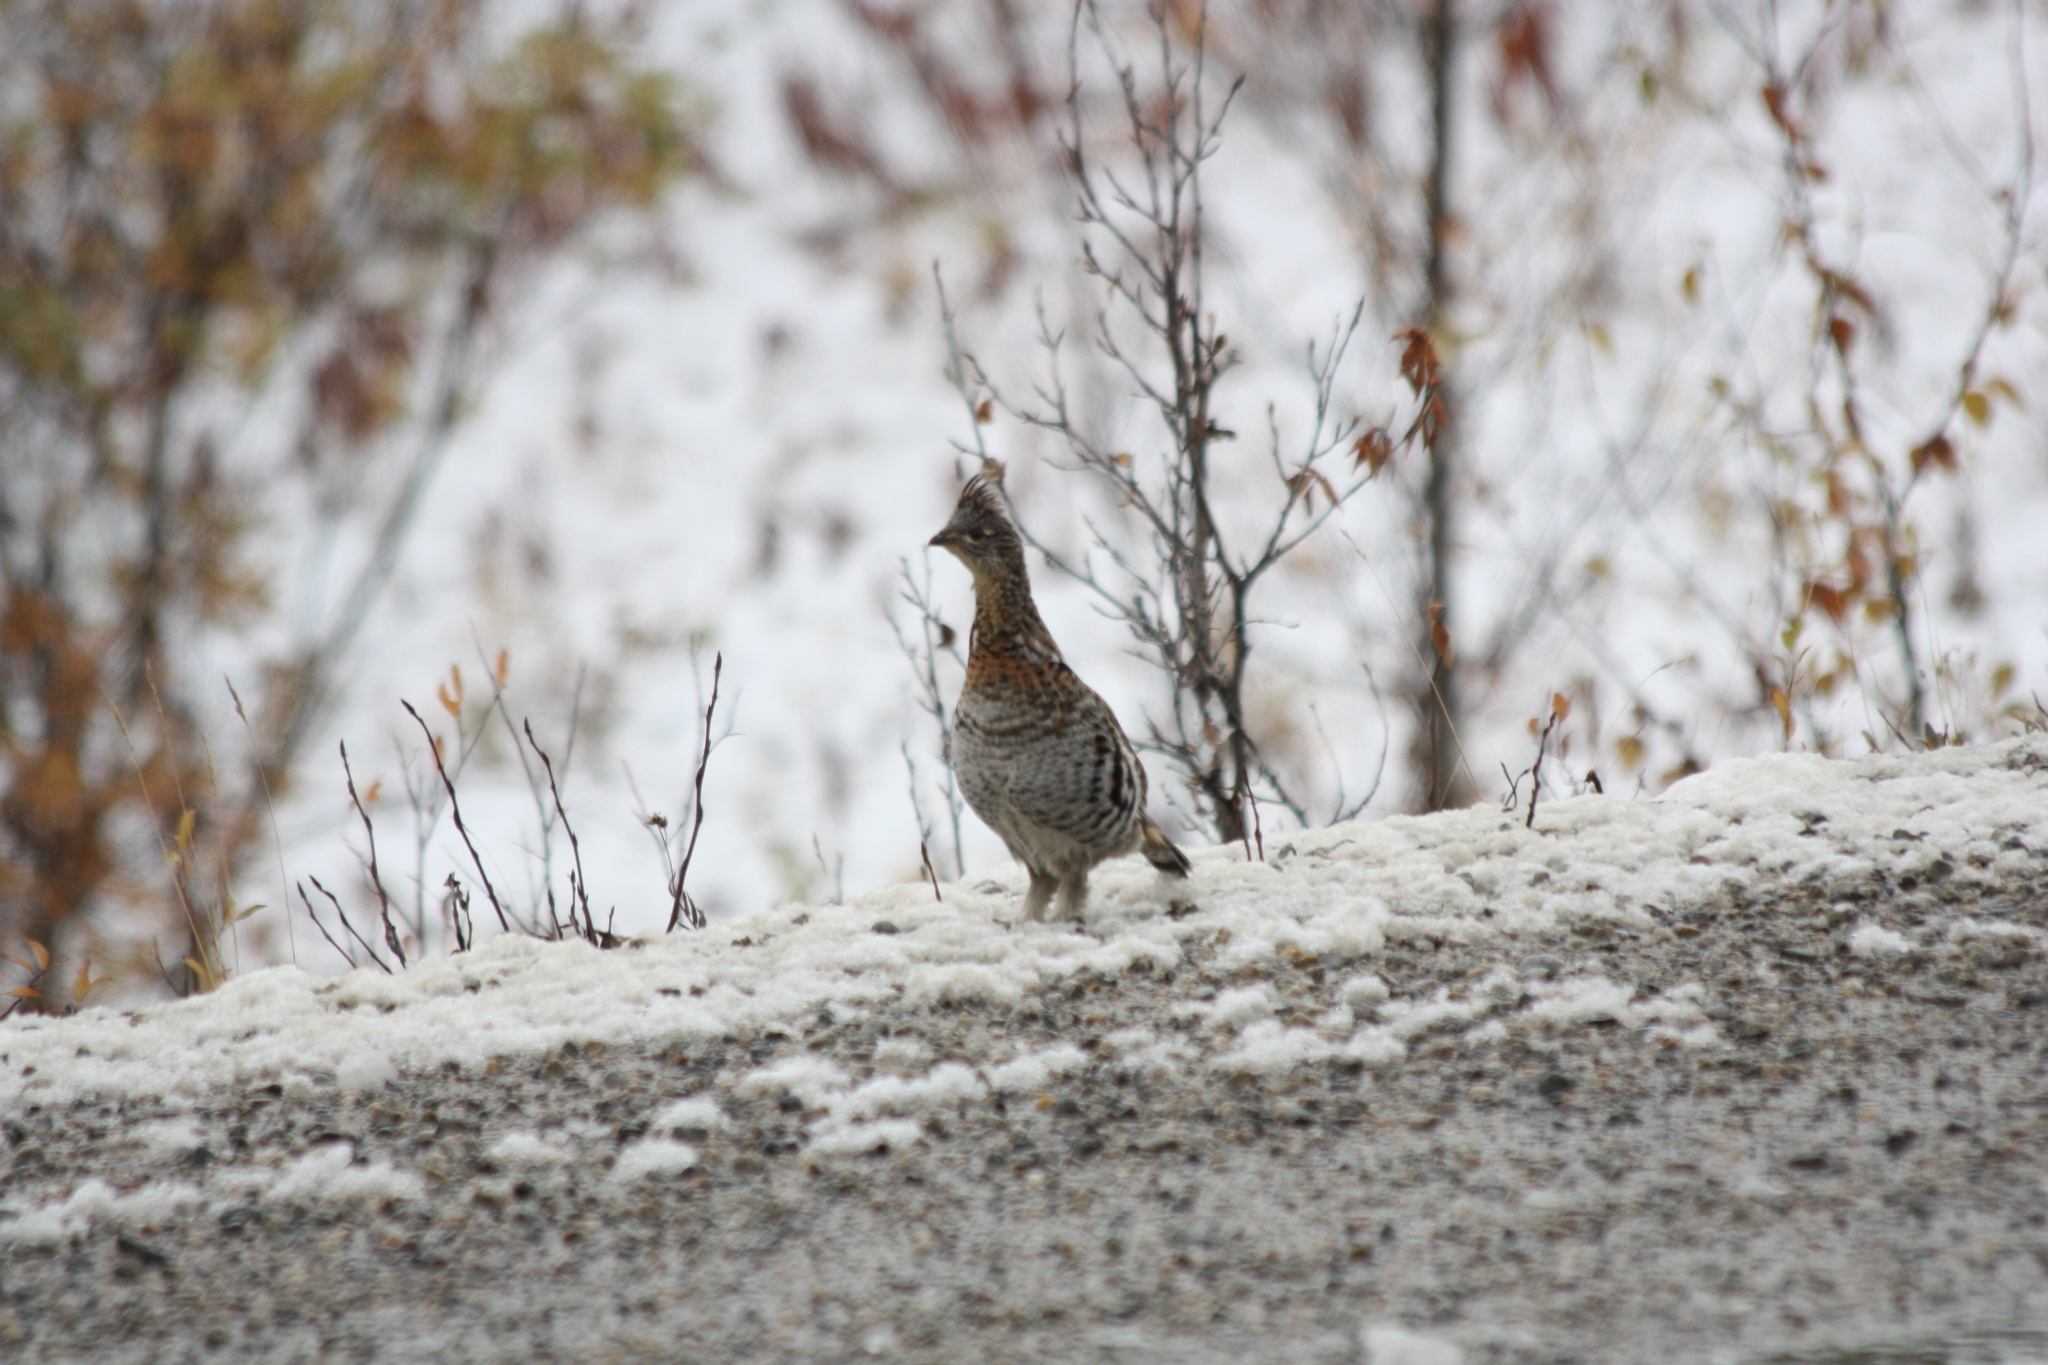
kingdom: Animalia
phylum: Chordata
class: Aves
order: Galliformes
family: Phasianidae
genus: Bonasa
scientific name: Bonasa umbellus
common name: Ruffed grouse
